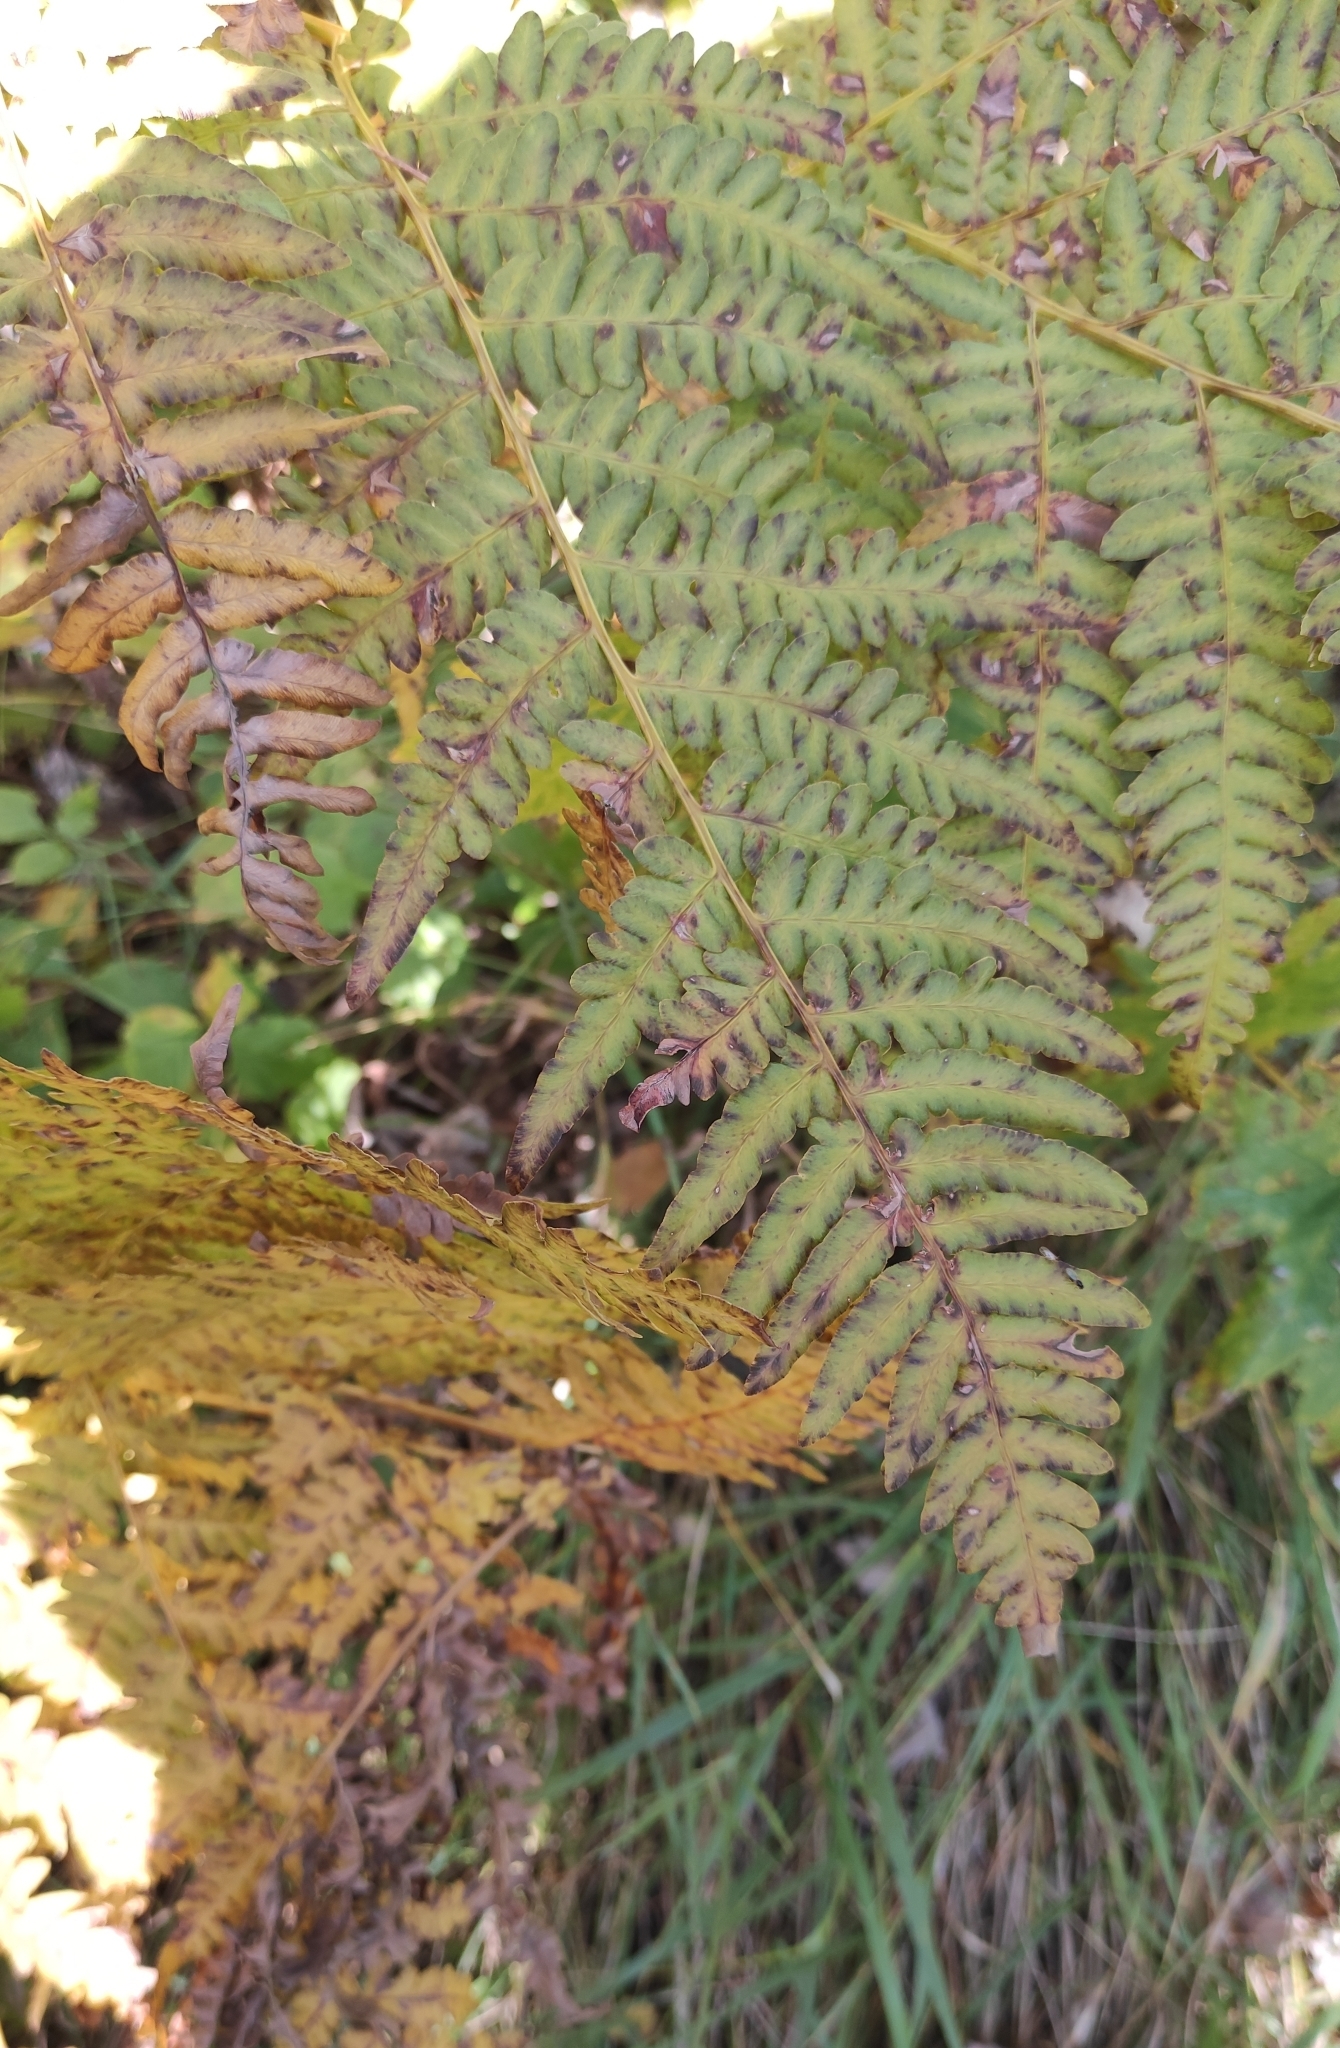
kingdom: Plantae
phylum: Tracheophyta
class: Polypodiopsida
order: Polypodiales
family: Dennstaedtiaceae
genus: Pteridium
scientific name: Pteridium aquilinum
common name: Bracken
